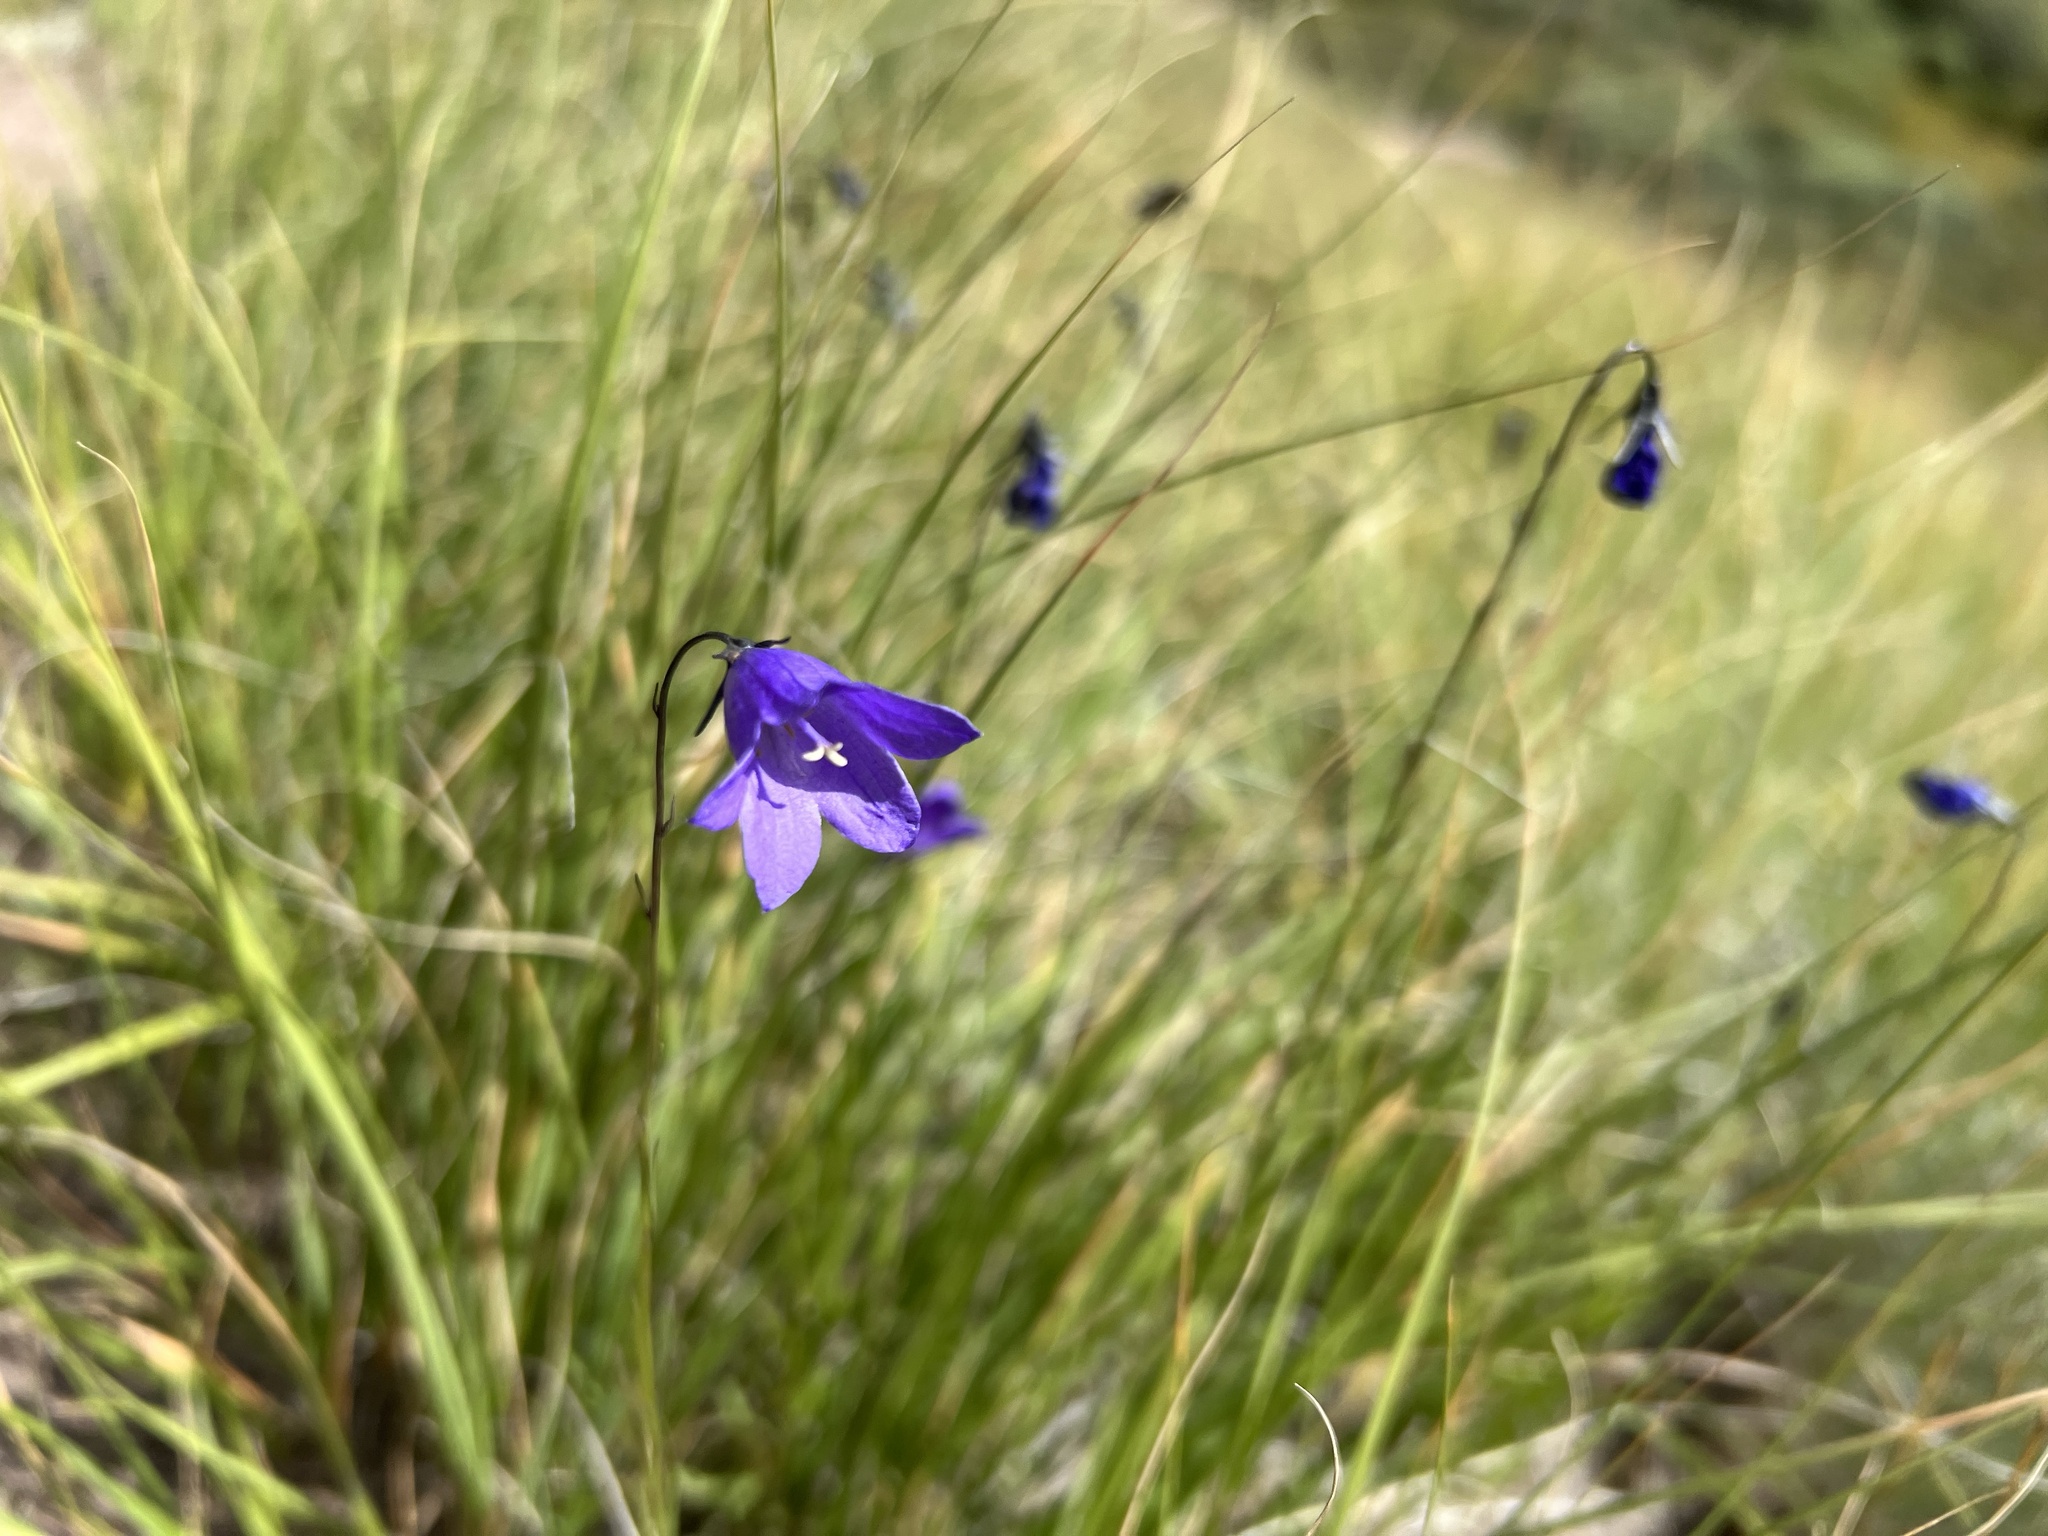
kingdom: Plantae
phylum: Tracheophyta
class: Magnoliopsida
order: Asterales
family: Campanulaceae
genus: Campanula
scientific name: Campanula petiolata
